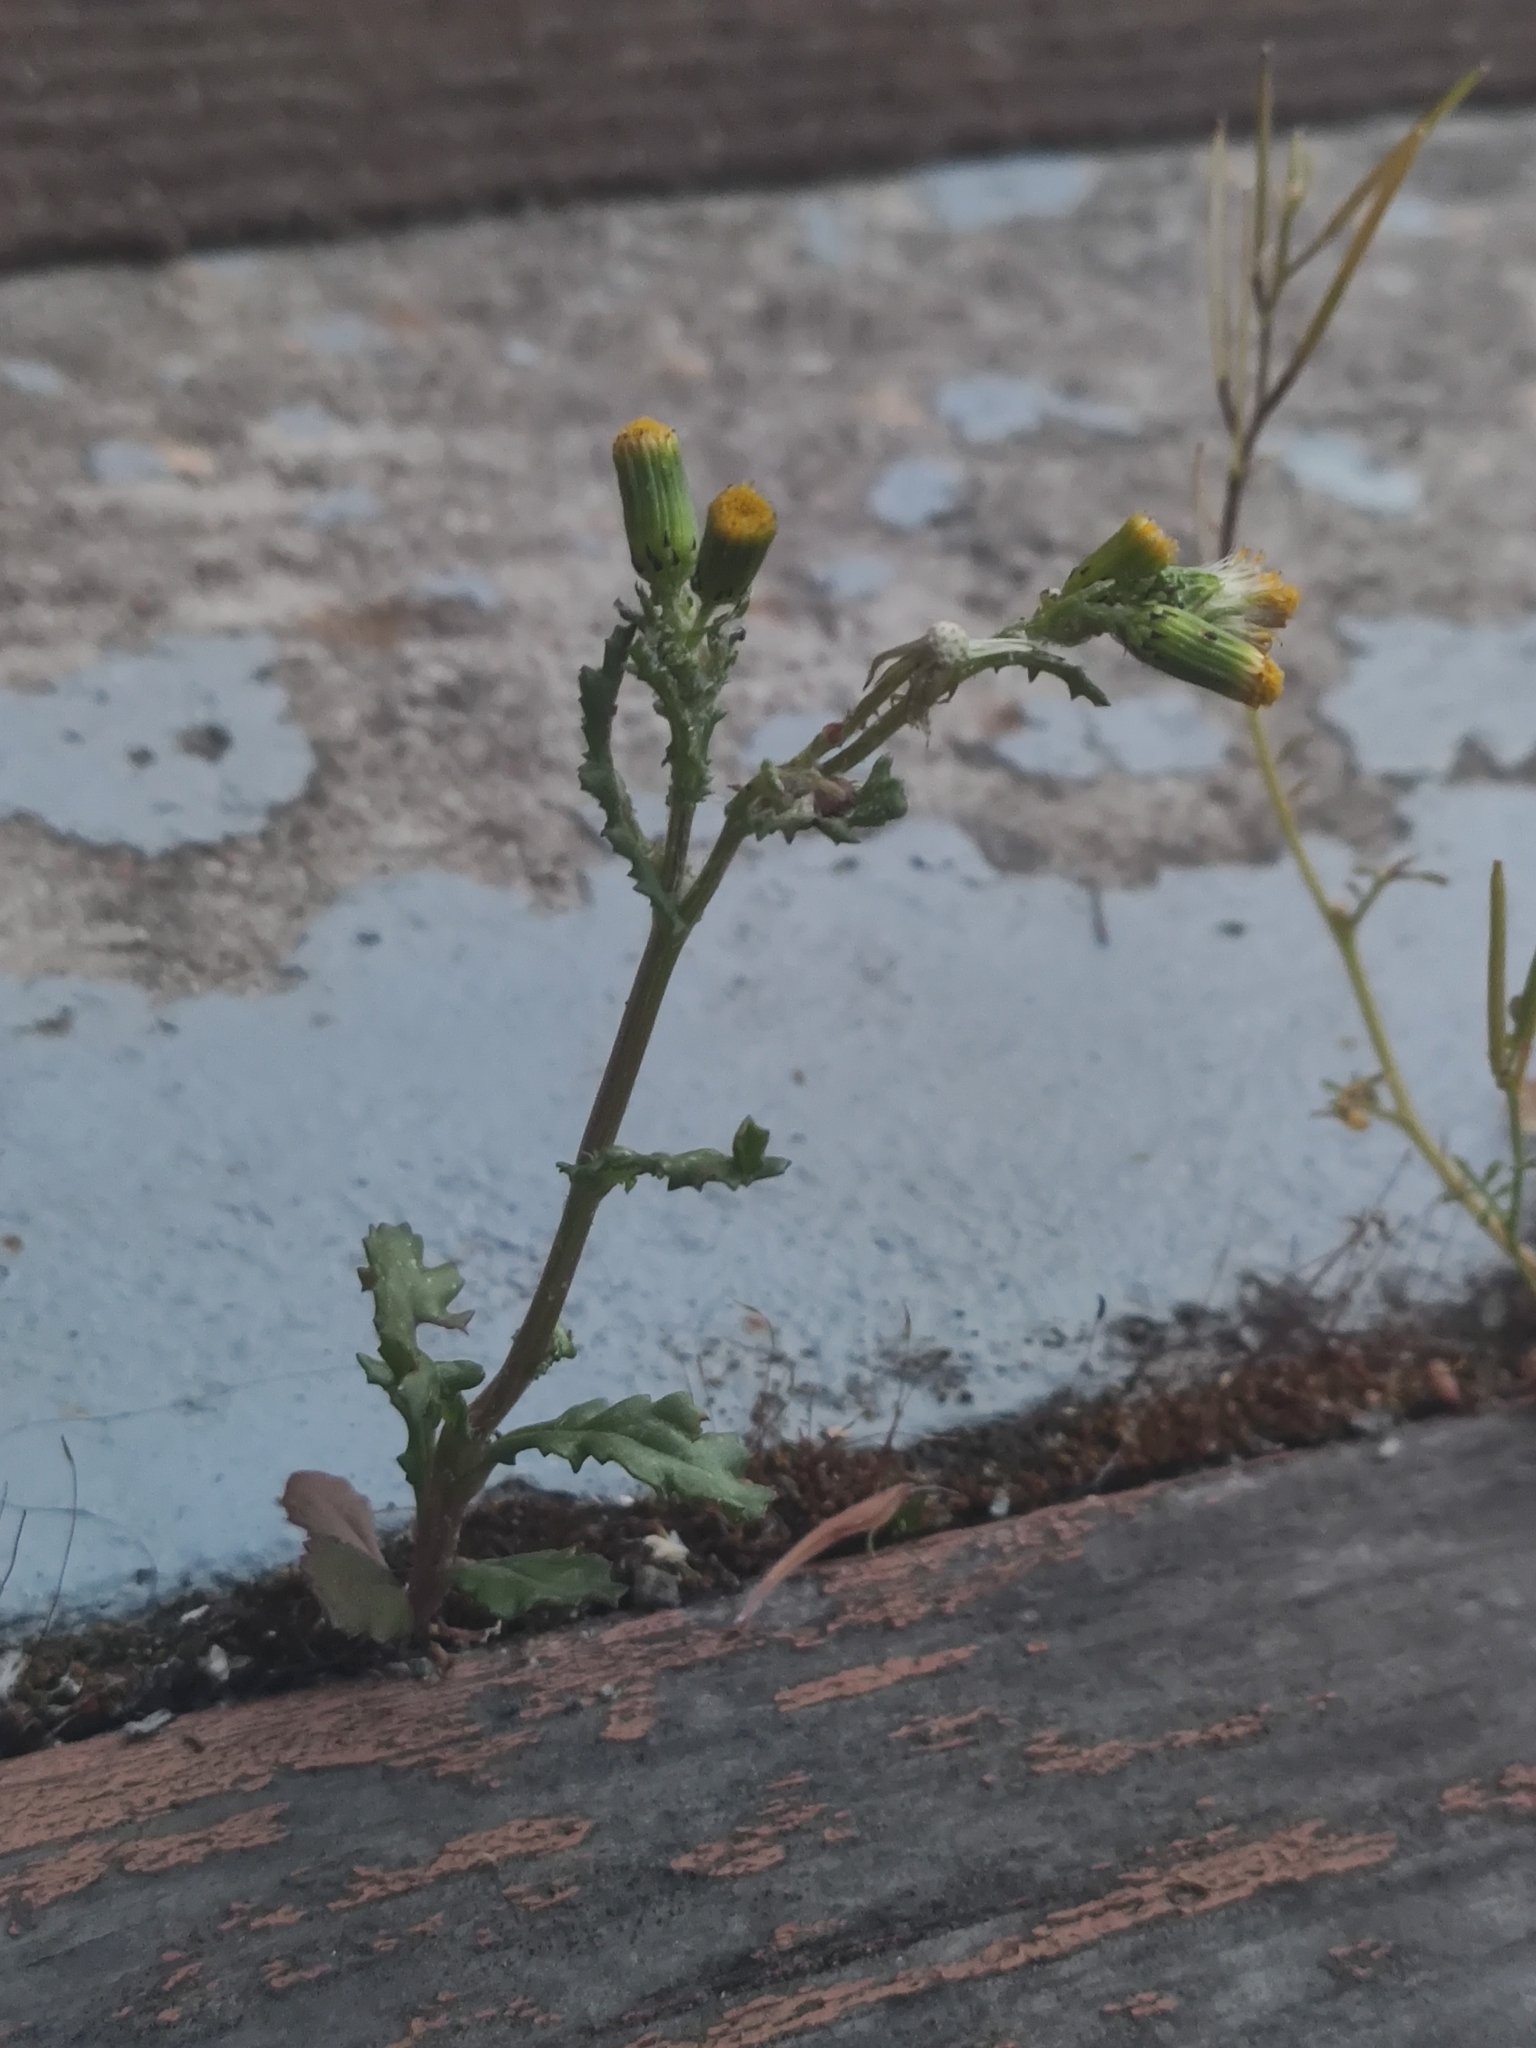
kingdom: Plantae
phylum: Tracheophyta
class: Magnoliopsida
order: Asterales
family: Asteraceae
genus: Senecio
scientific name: Senecio vulgaris
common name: Old-man-in-the-spring
